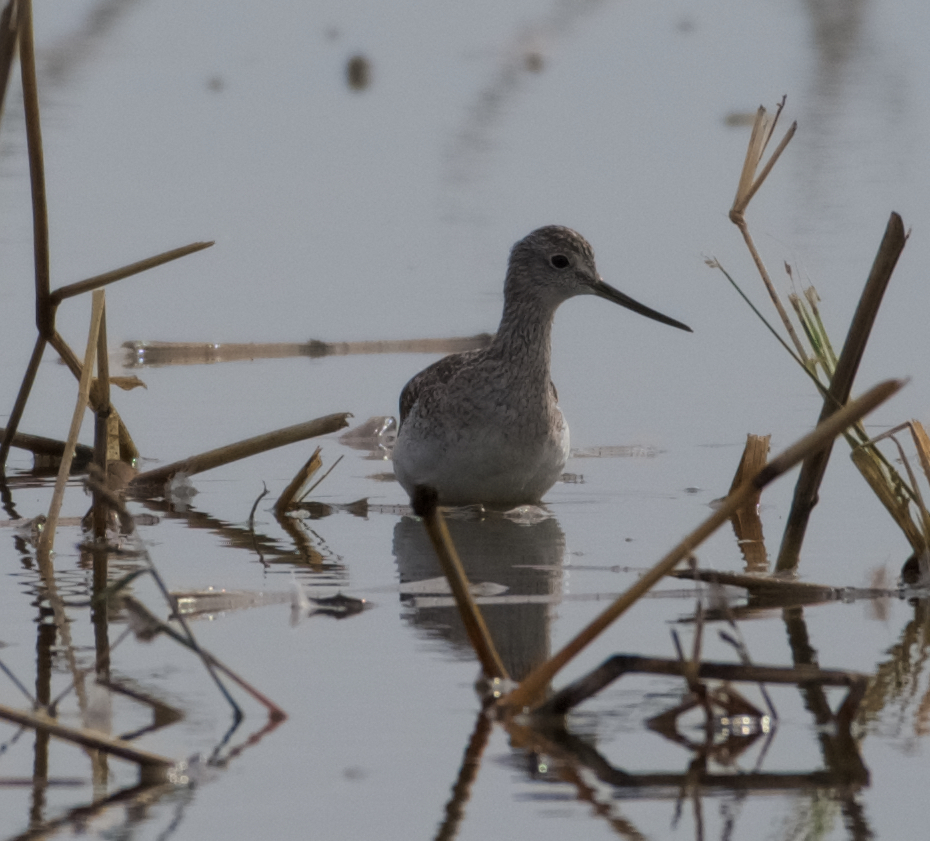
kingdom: Animalia
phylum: Chordata
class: Aves
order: Charadriiformes
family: Scolopacidae
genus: Tringa
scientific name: Tringa melanoleuca
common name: Greater yellowlegs
